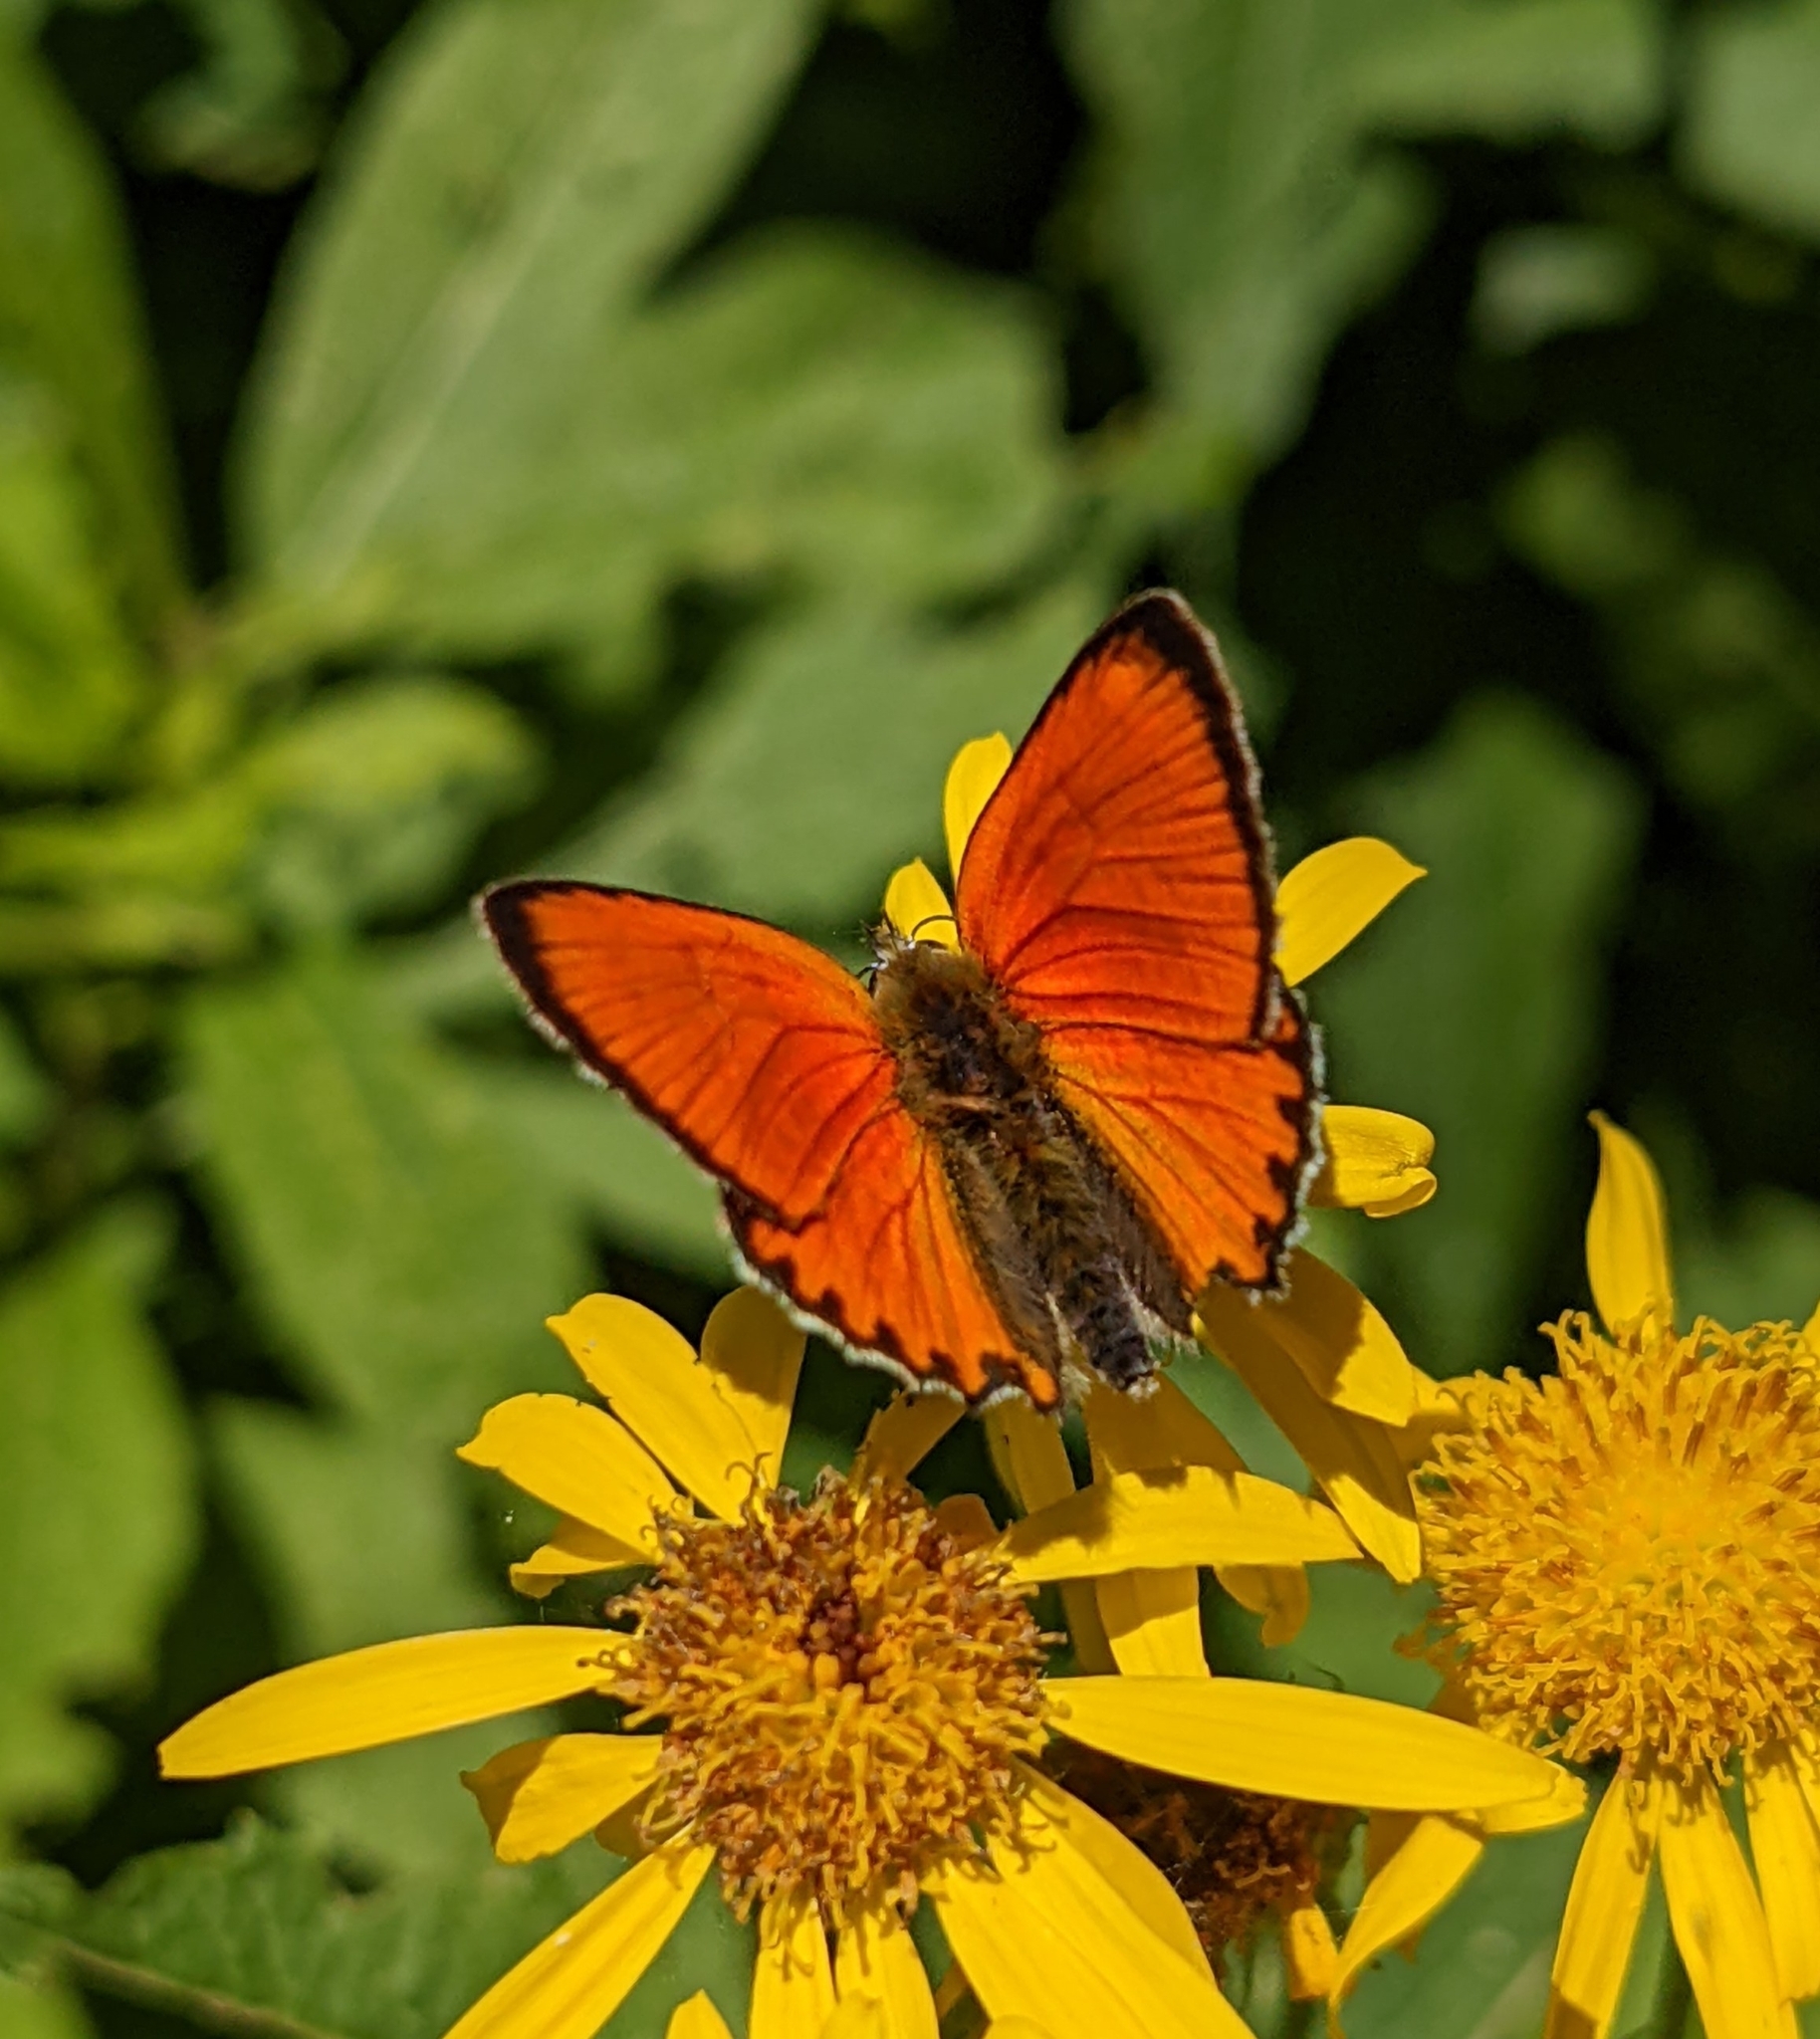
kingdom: Animalia
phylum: Arthropoda
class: Insecta
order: Lepidoptera
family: Lycaenidae
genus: Lycaena
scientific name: Lycaena virgaureae
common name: Scarce copper
